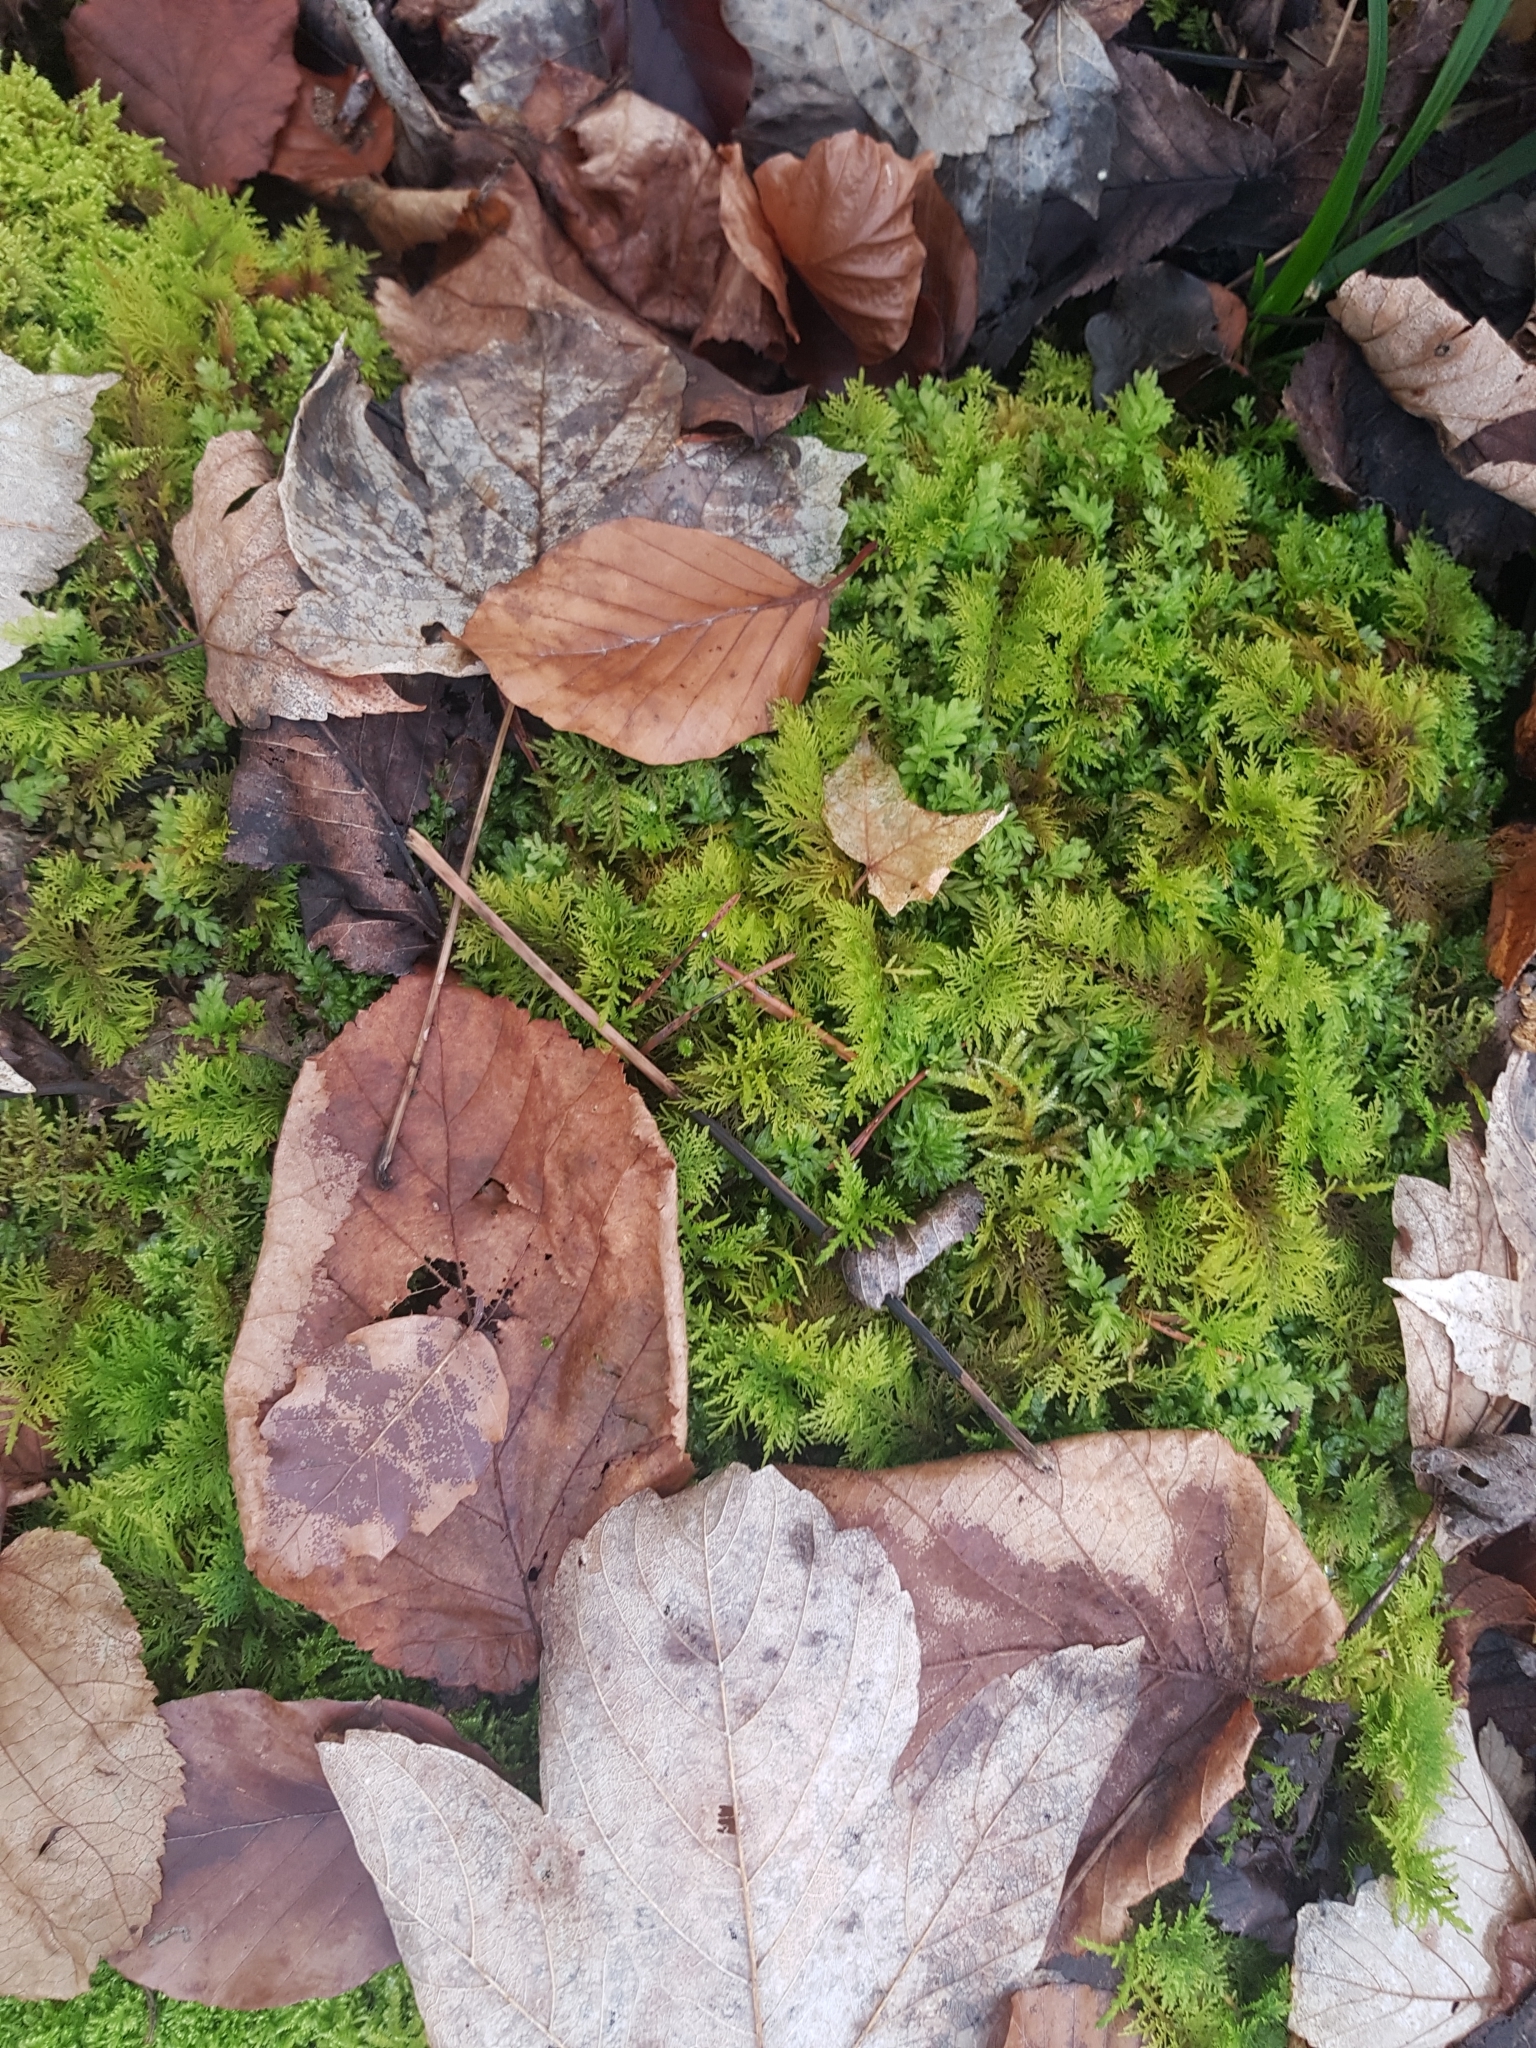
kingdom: Plantae
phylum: Bryophyta
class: Bryopsida
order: Bryales
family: Mniaceae
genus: Plagiomnium
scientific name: Plagiomnium undulatum
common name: Hart's-tongue thyme-moss
